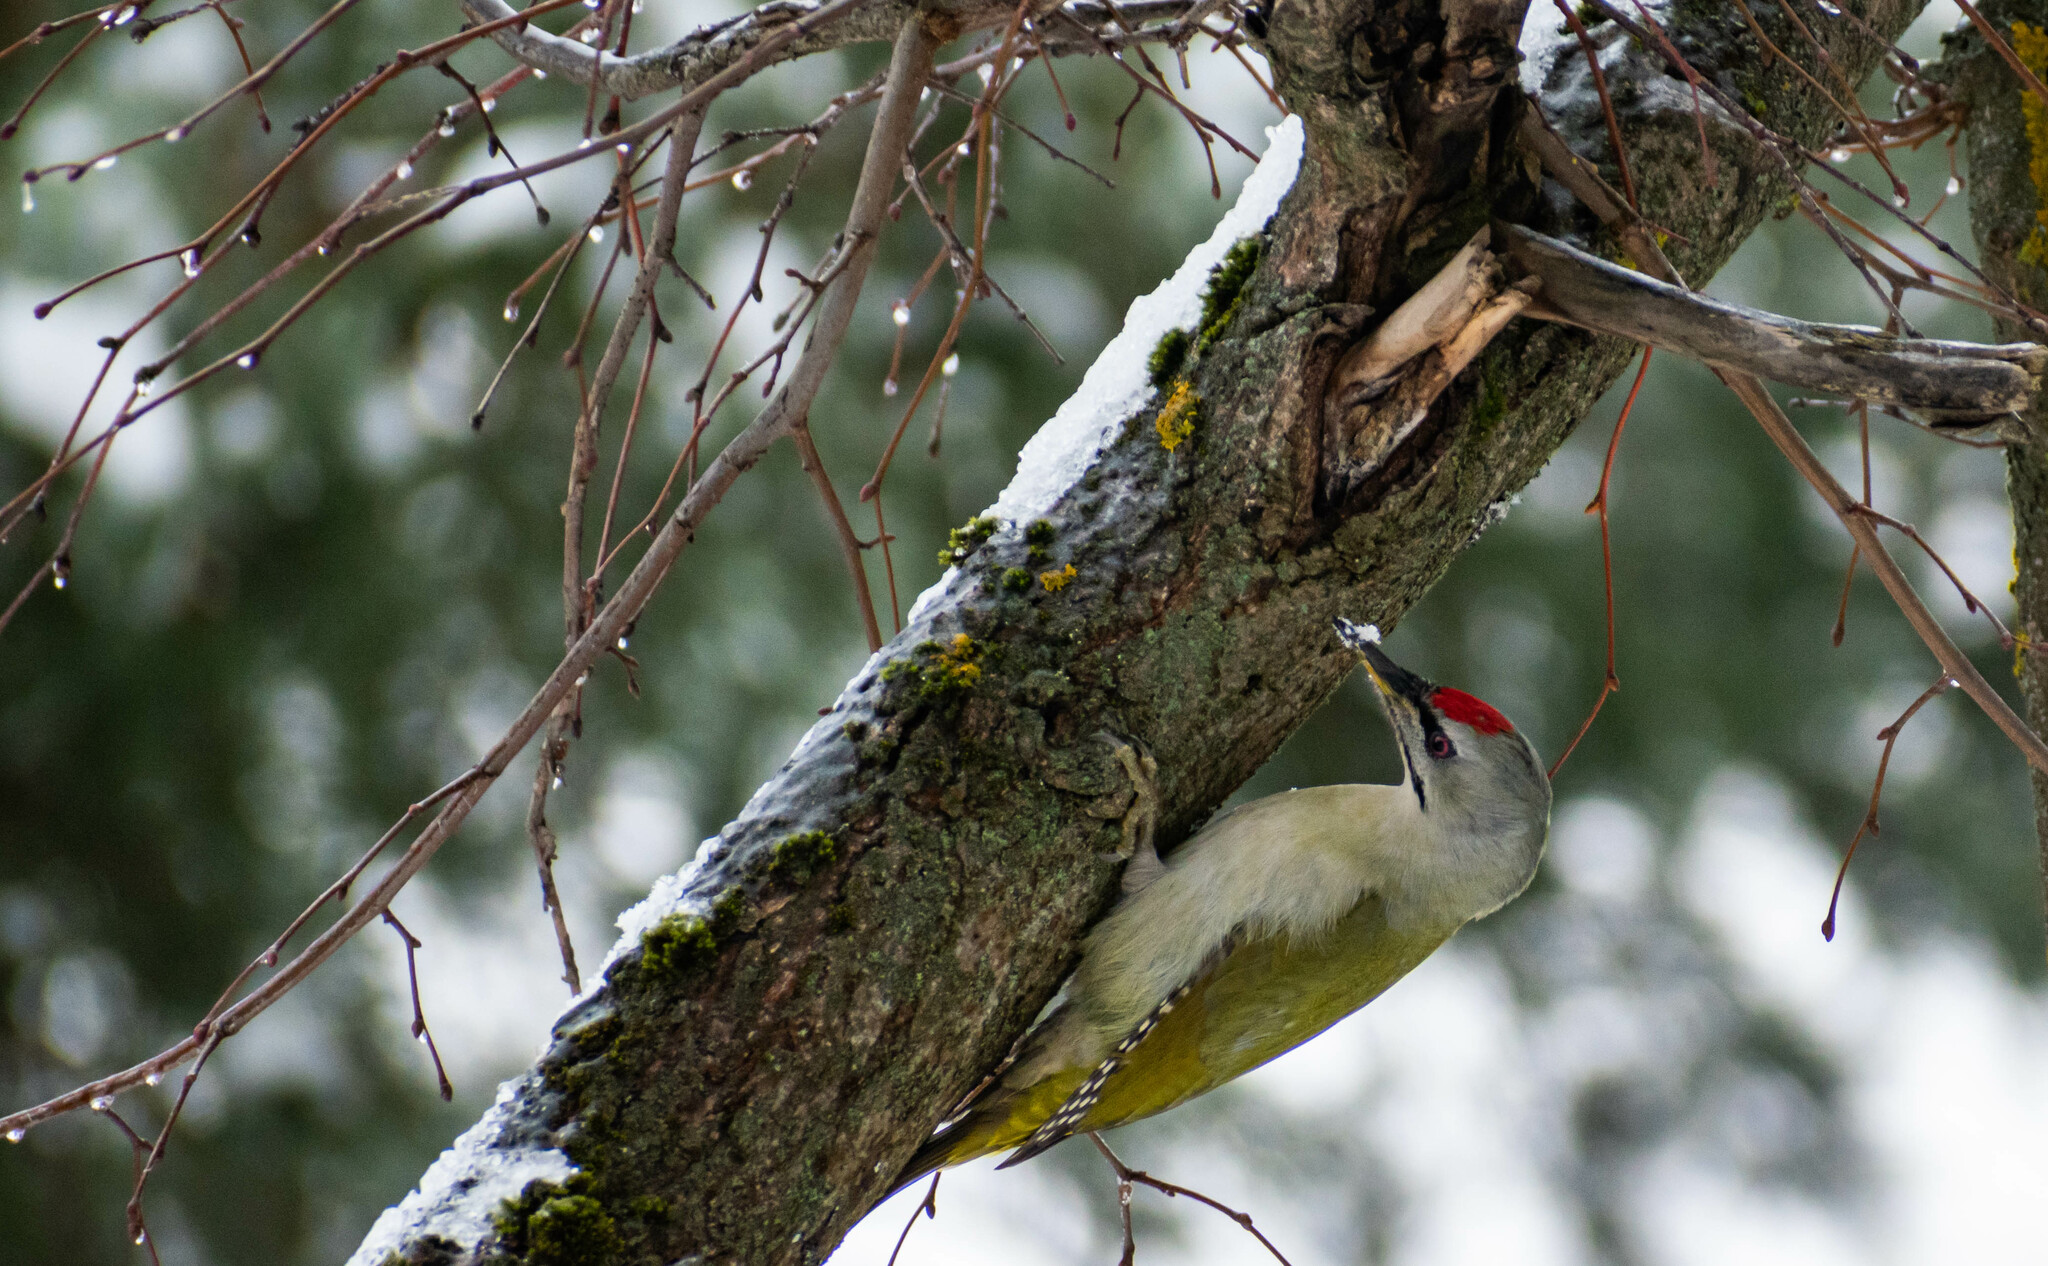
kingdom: Animalia
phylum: Chordata
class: Aves
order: Piciformes
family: Picidae
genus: Picus
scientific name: Picus canus
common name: Grey-headed woodpecker
